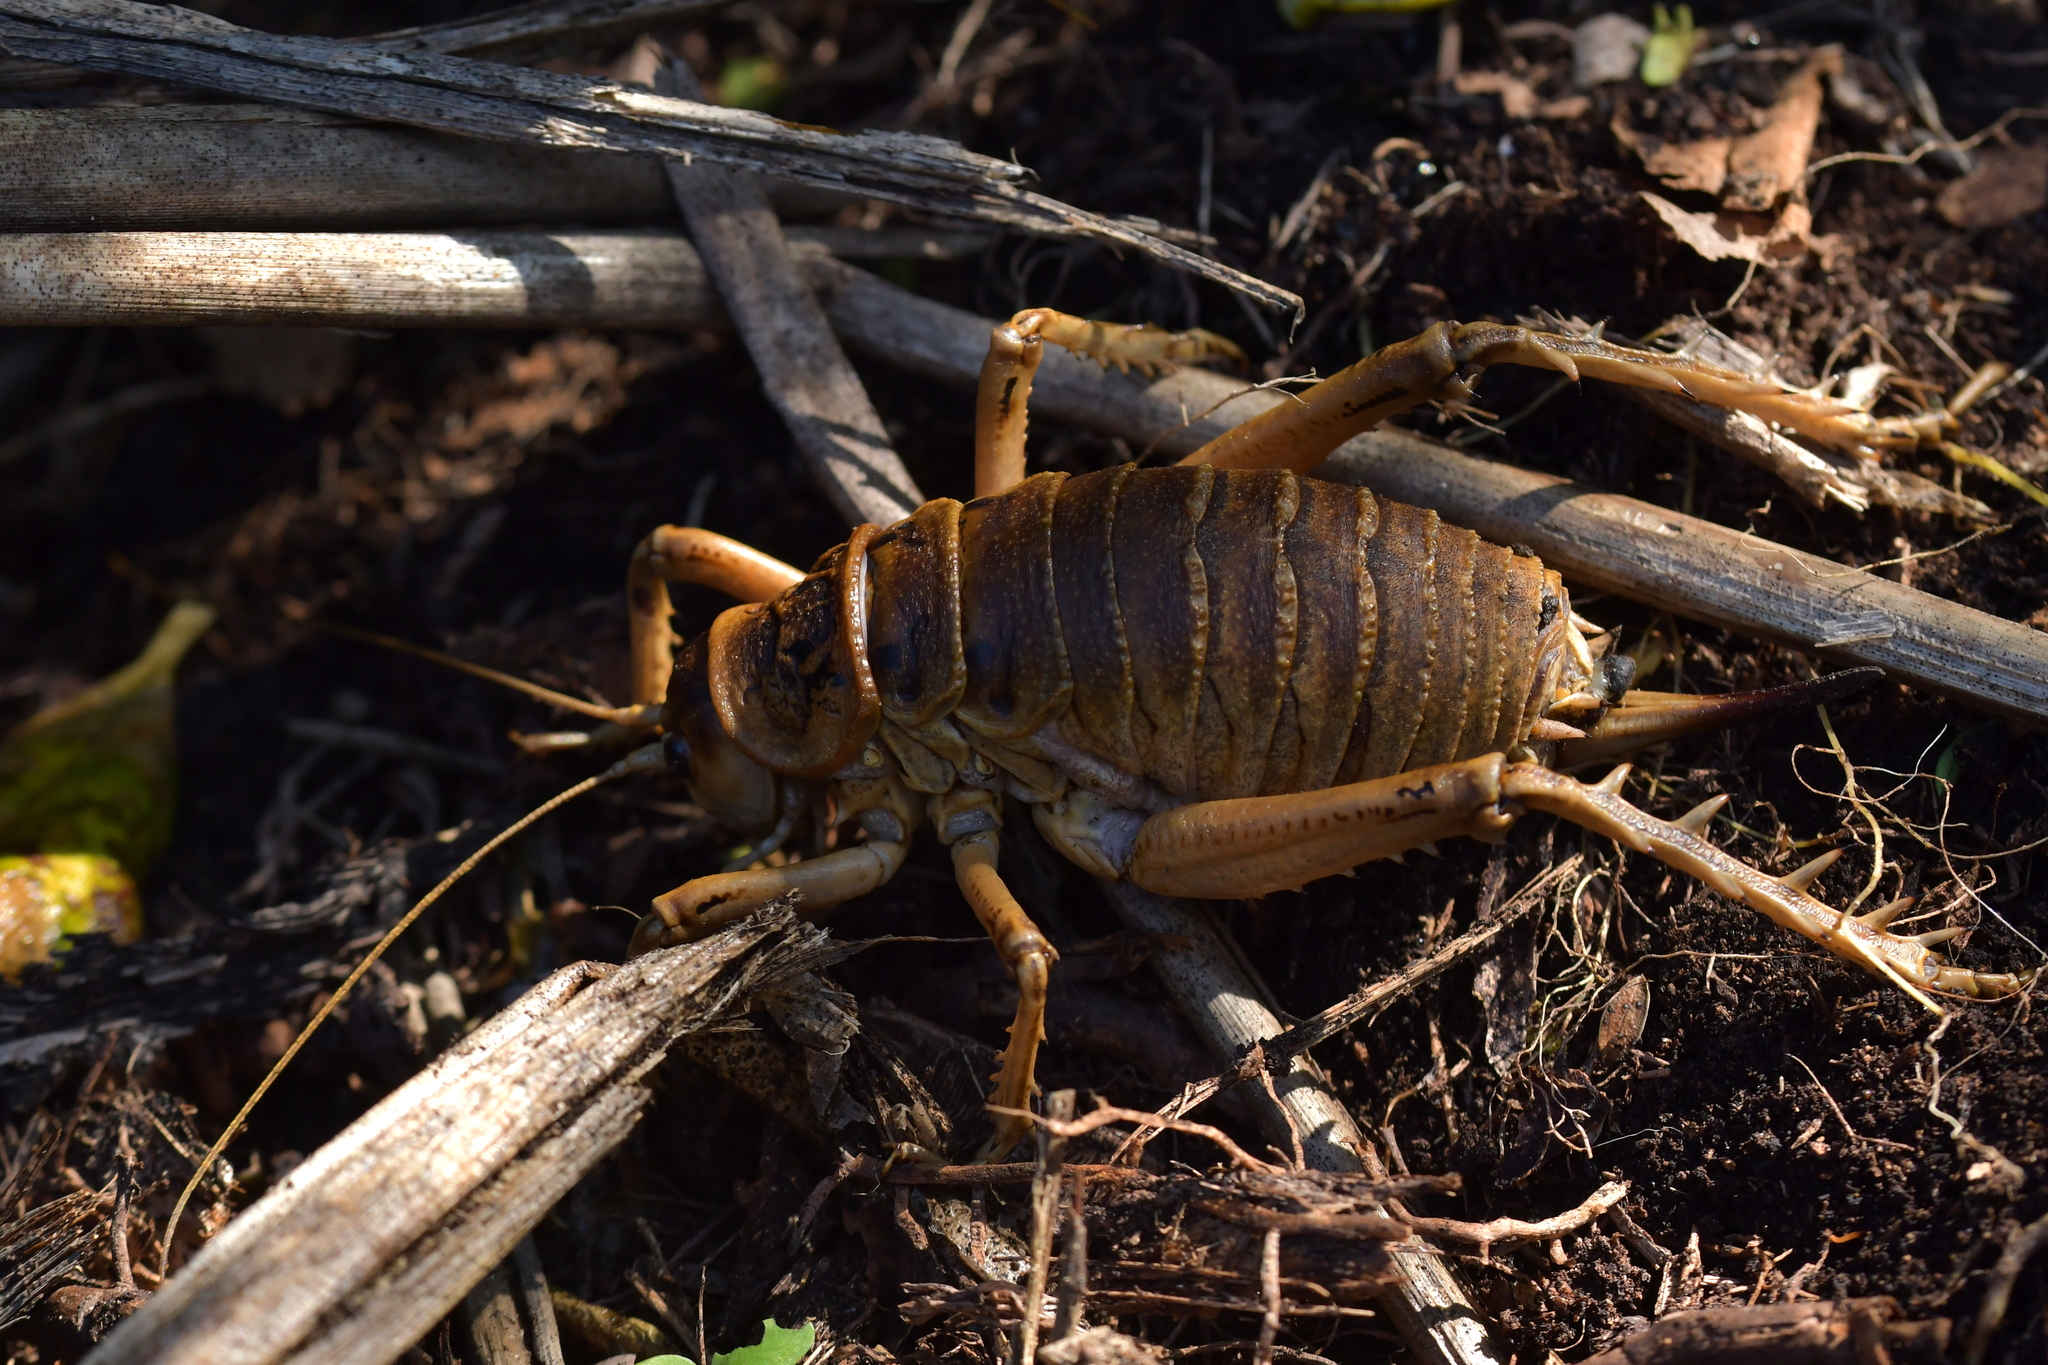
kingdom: Animalia
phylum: Arthropoda
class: Insecta
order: Orthoptera
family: Anostostomatidae
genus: Deinacrida
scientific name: Deinacrida rugosa
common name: Stephens island weta
